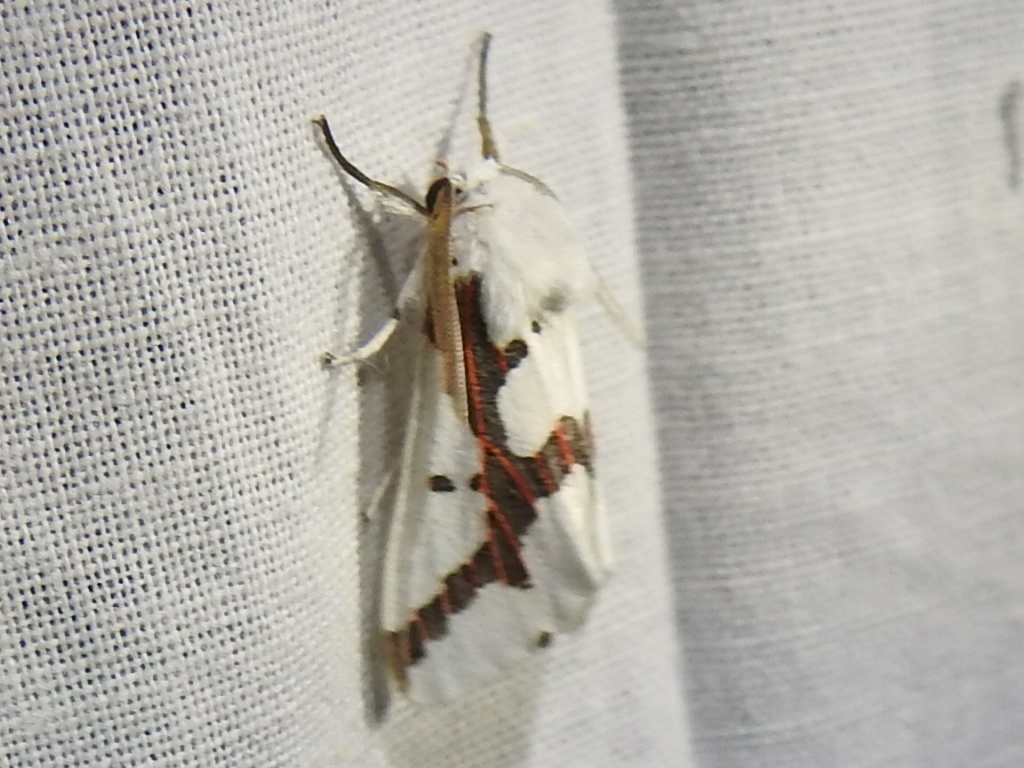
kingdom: Animalia
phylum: Arthropoda
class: Insecta
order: Lepidoptera
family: Erebidae
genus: Euerythra
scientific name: Euerythra phasma
